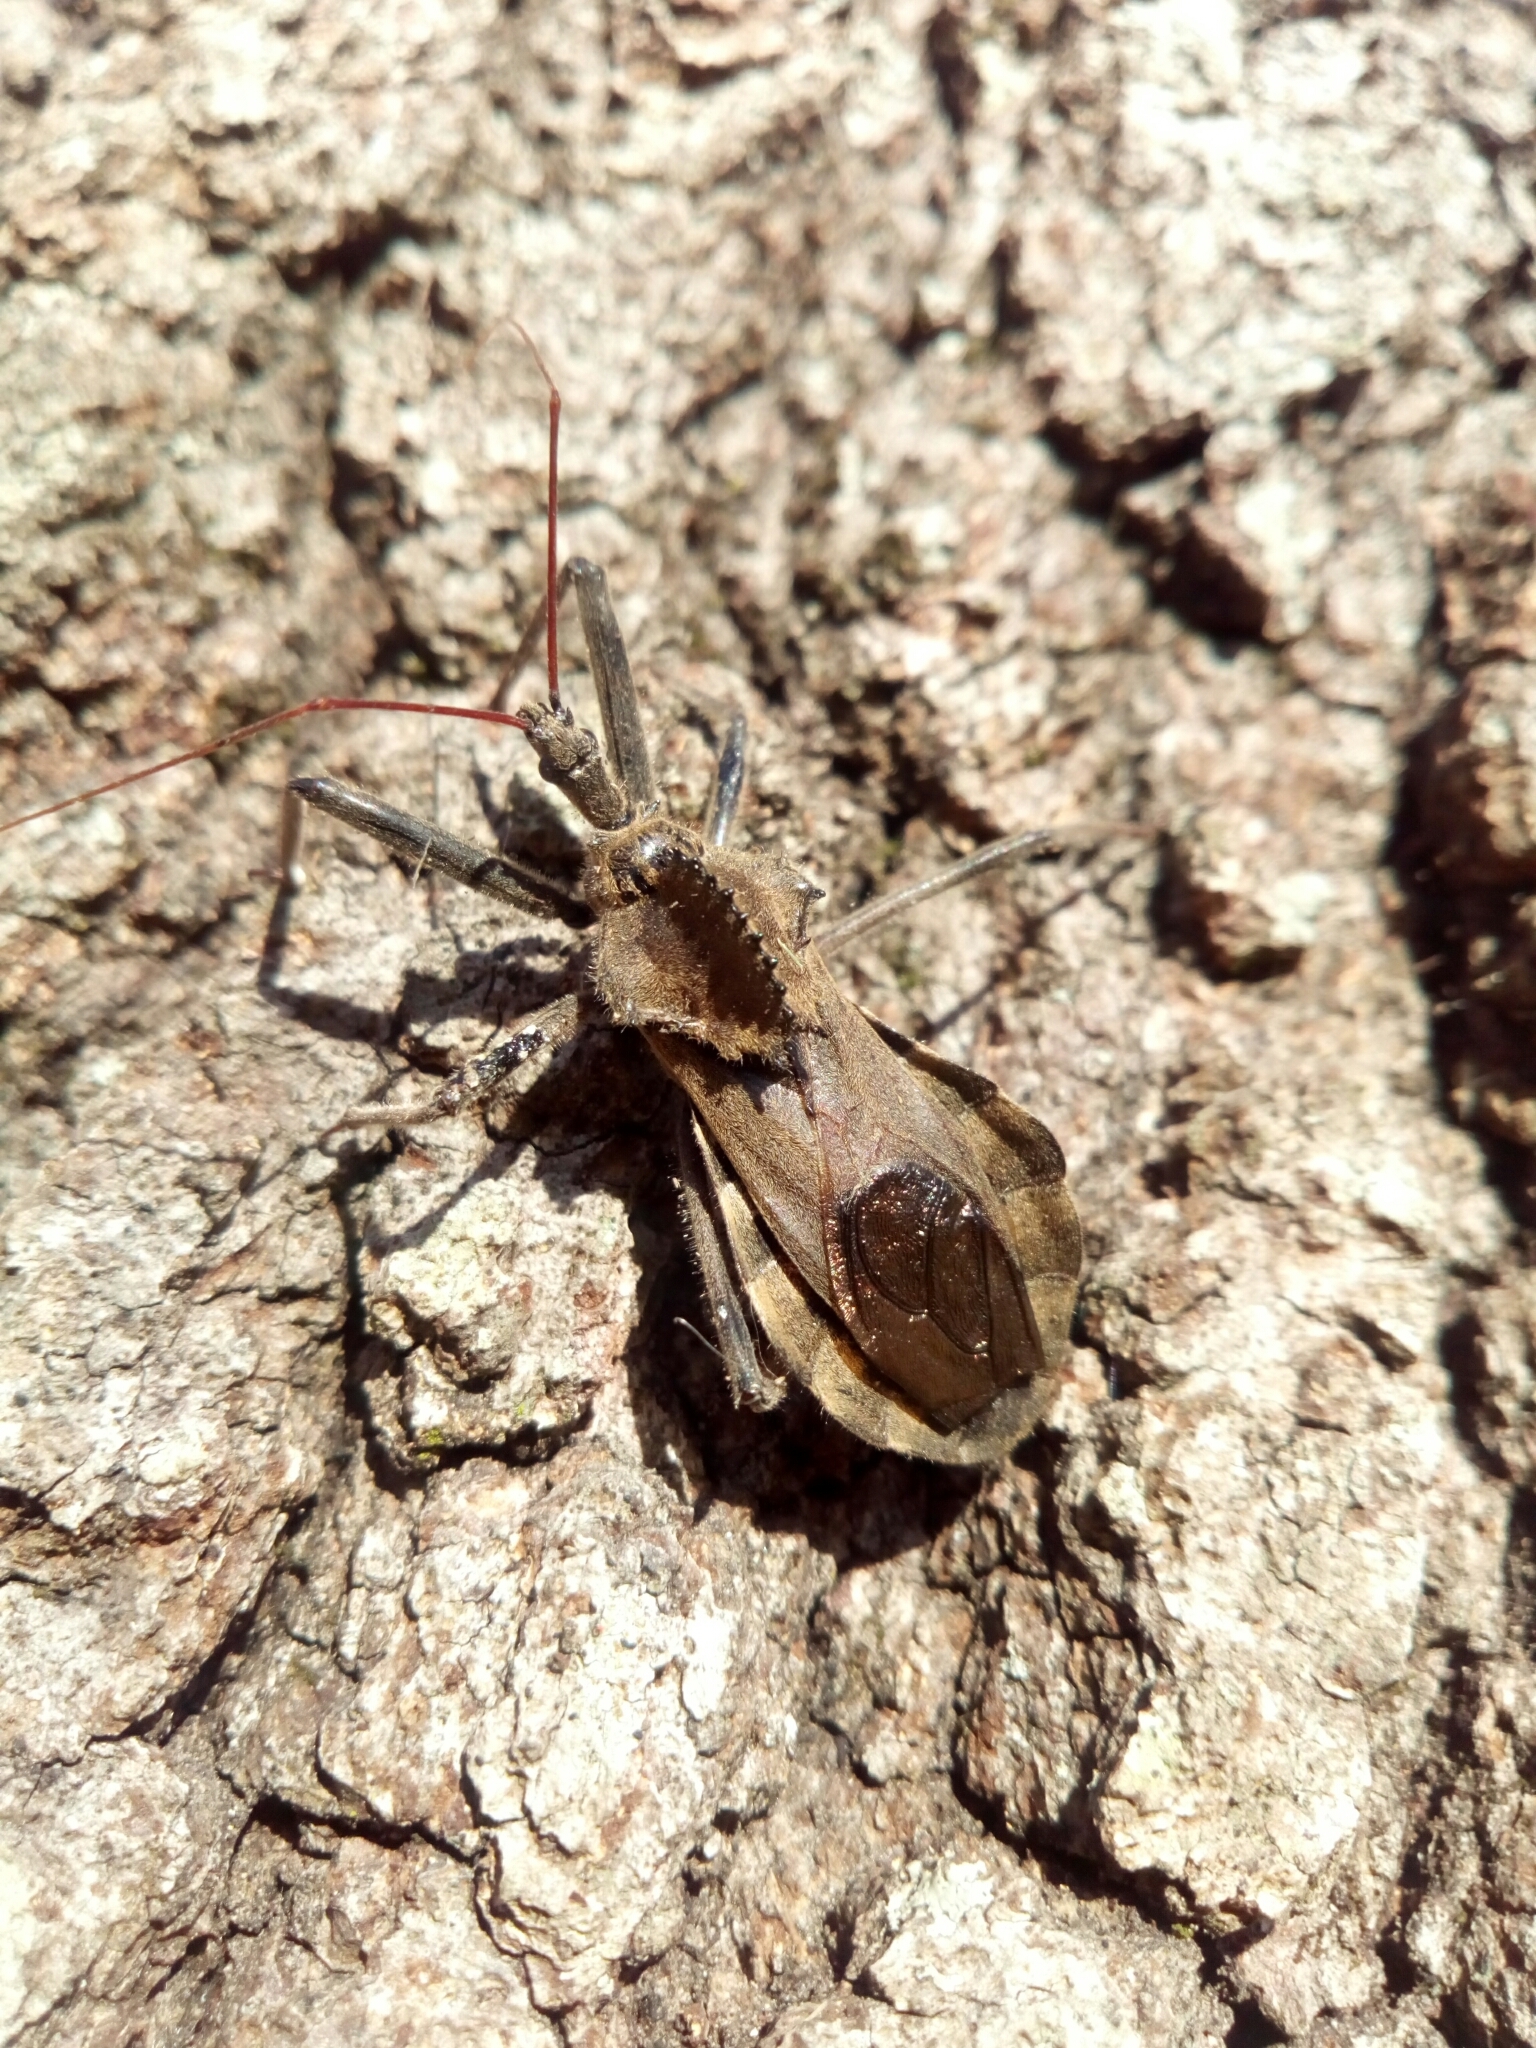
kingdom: Animalia
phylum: Arthropoda
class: Insecta
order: Hemiptera
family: Reduviidae
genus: Arilus
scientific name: Arilus cristatus
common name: North american wheel bug
